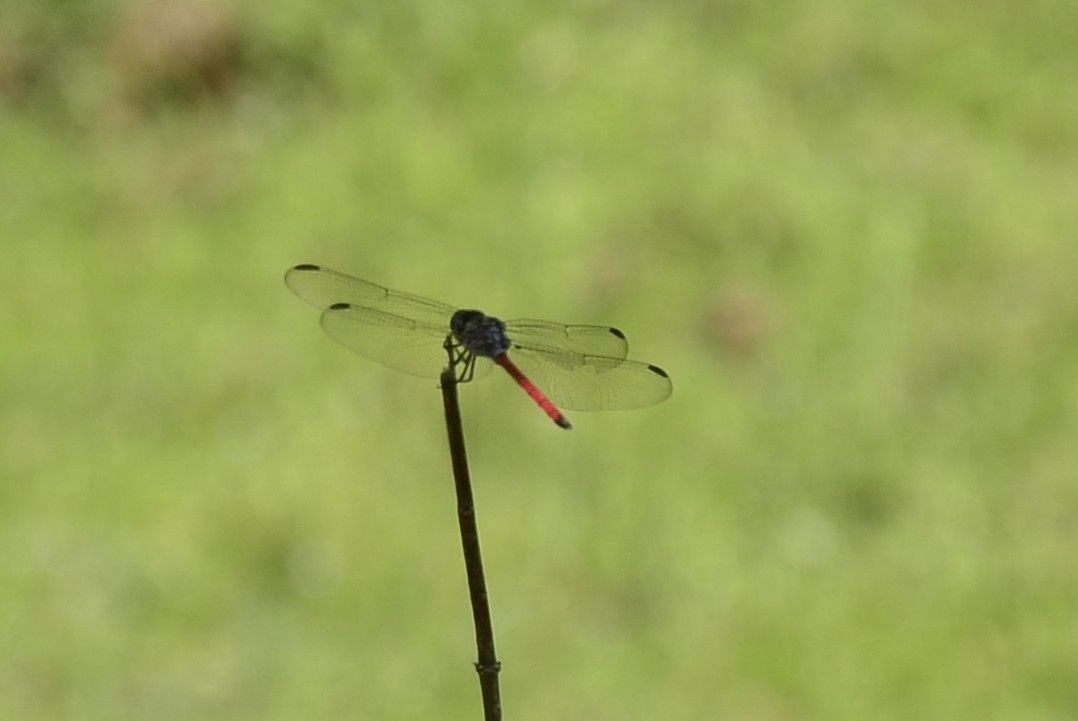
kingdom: Animalia
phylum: Arthropoda
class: Insecta
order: Odonata
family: Libellulidae
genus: Lathrecista
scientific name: Lathrecista asiatica
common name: Scarlet grenadier
